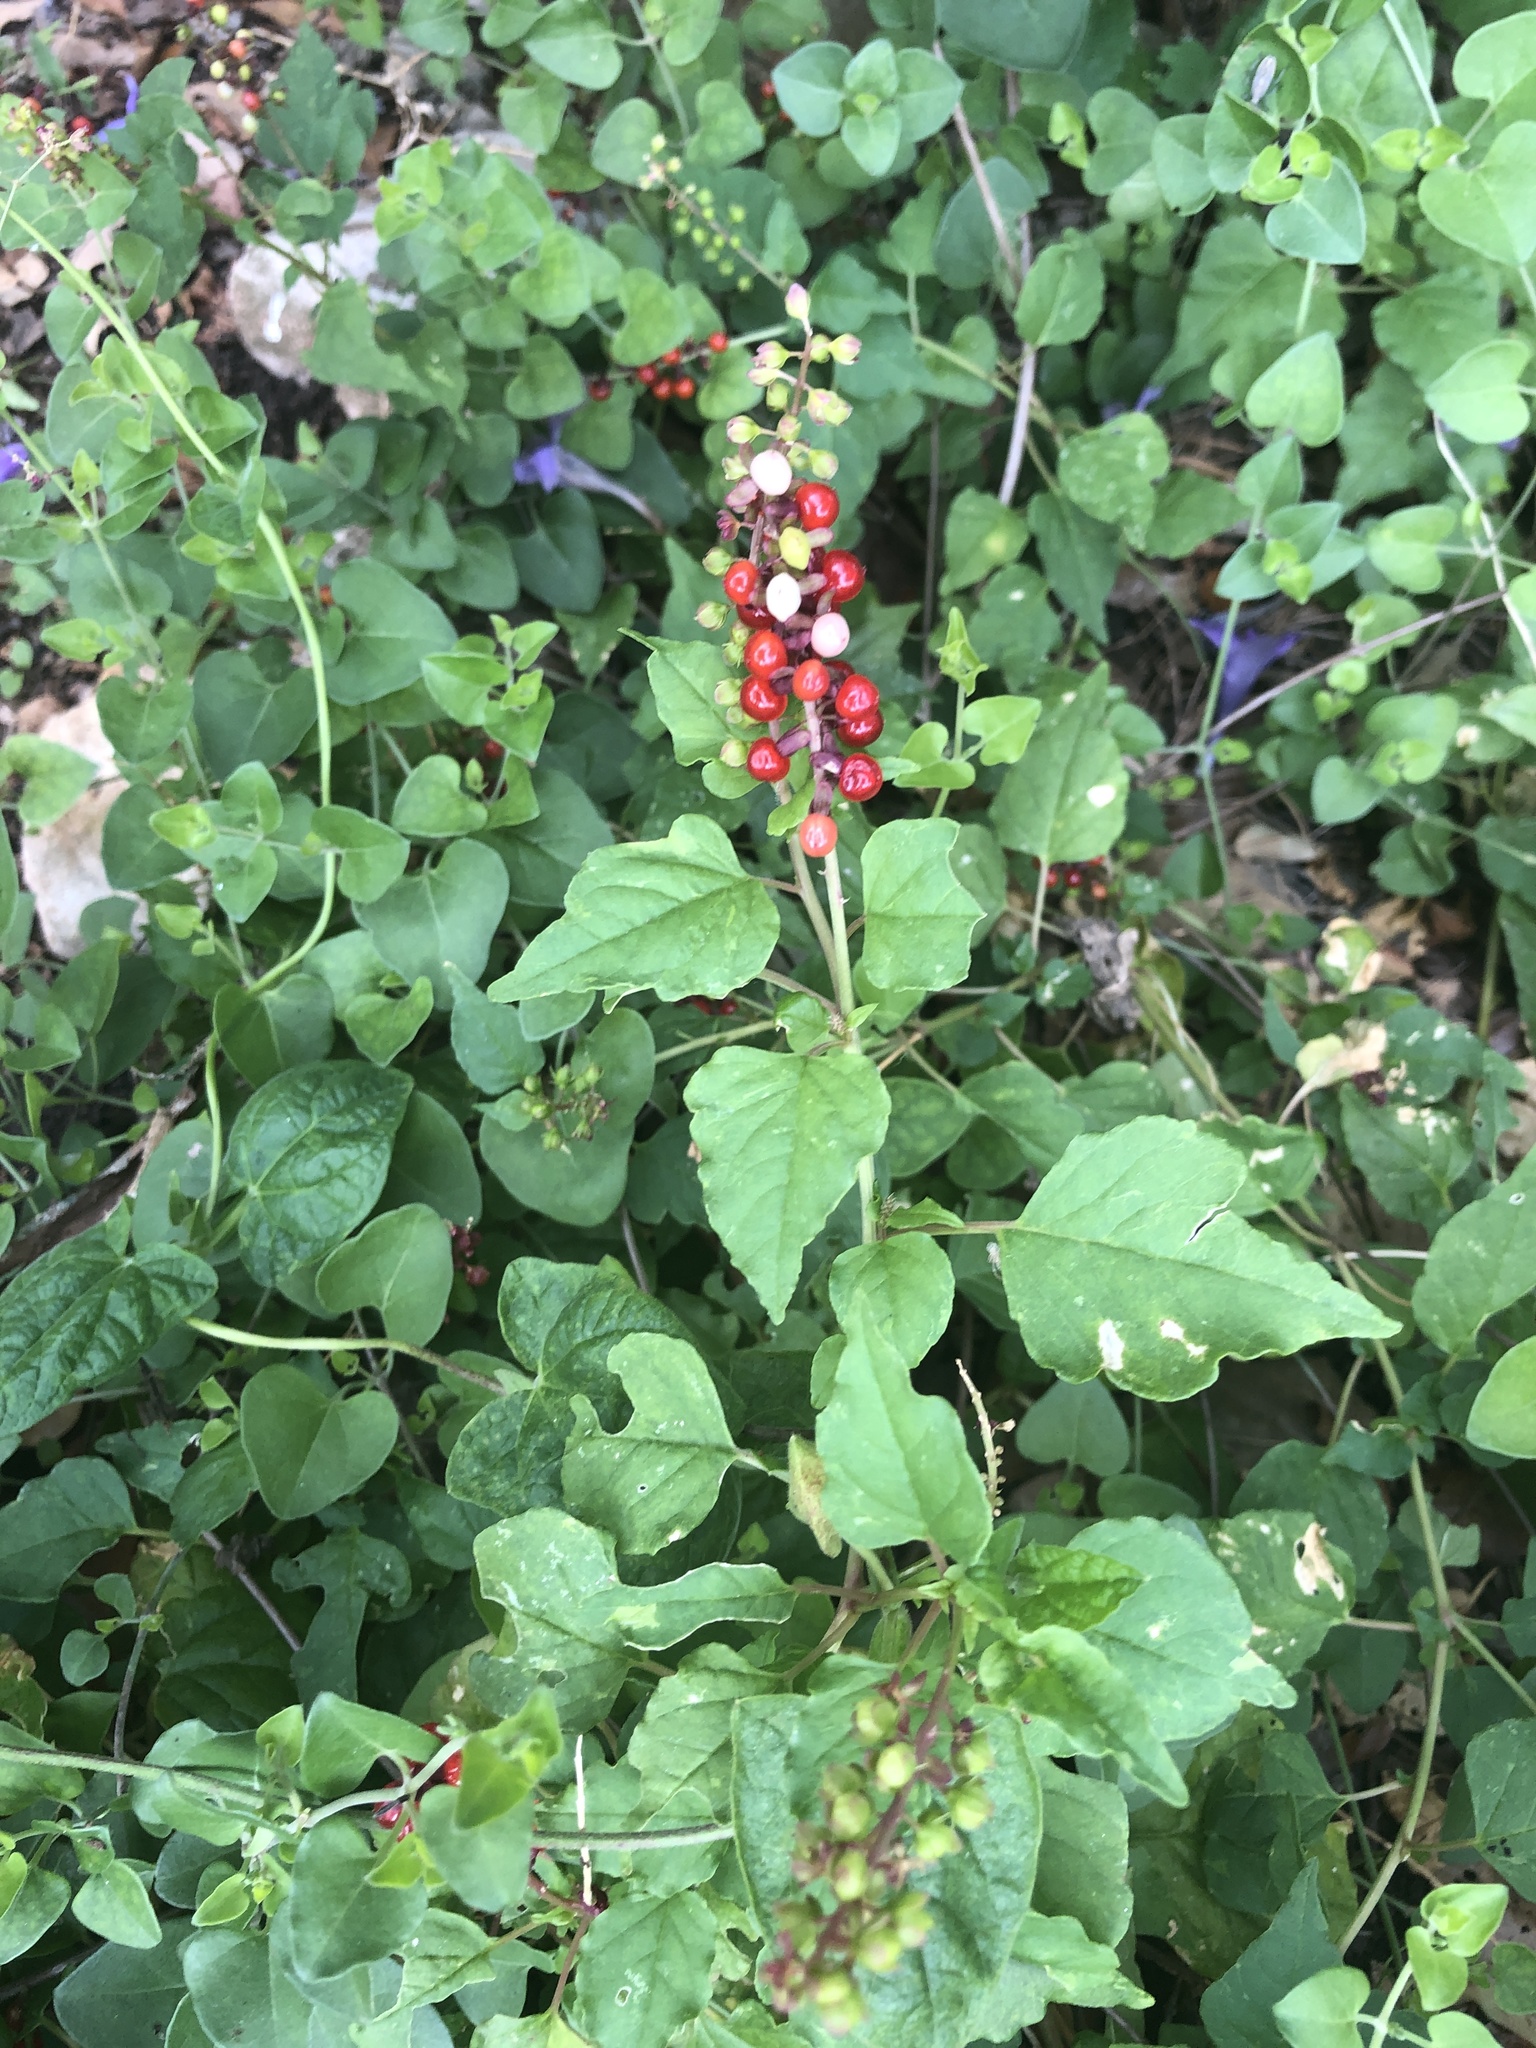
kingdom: Plantae
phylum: Tracheophyta
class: Magnoliopsida
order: Caryophyllales
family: Phytolaccaceae
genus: Rivina
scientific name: Rivina humilis
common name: Rougeplant
